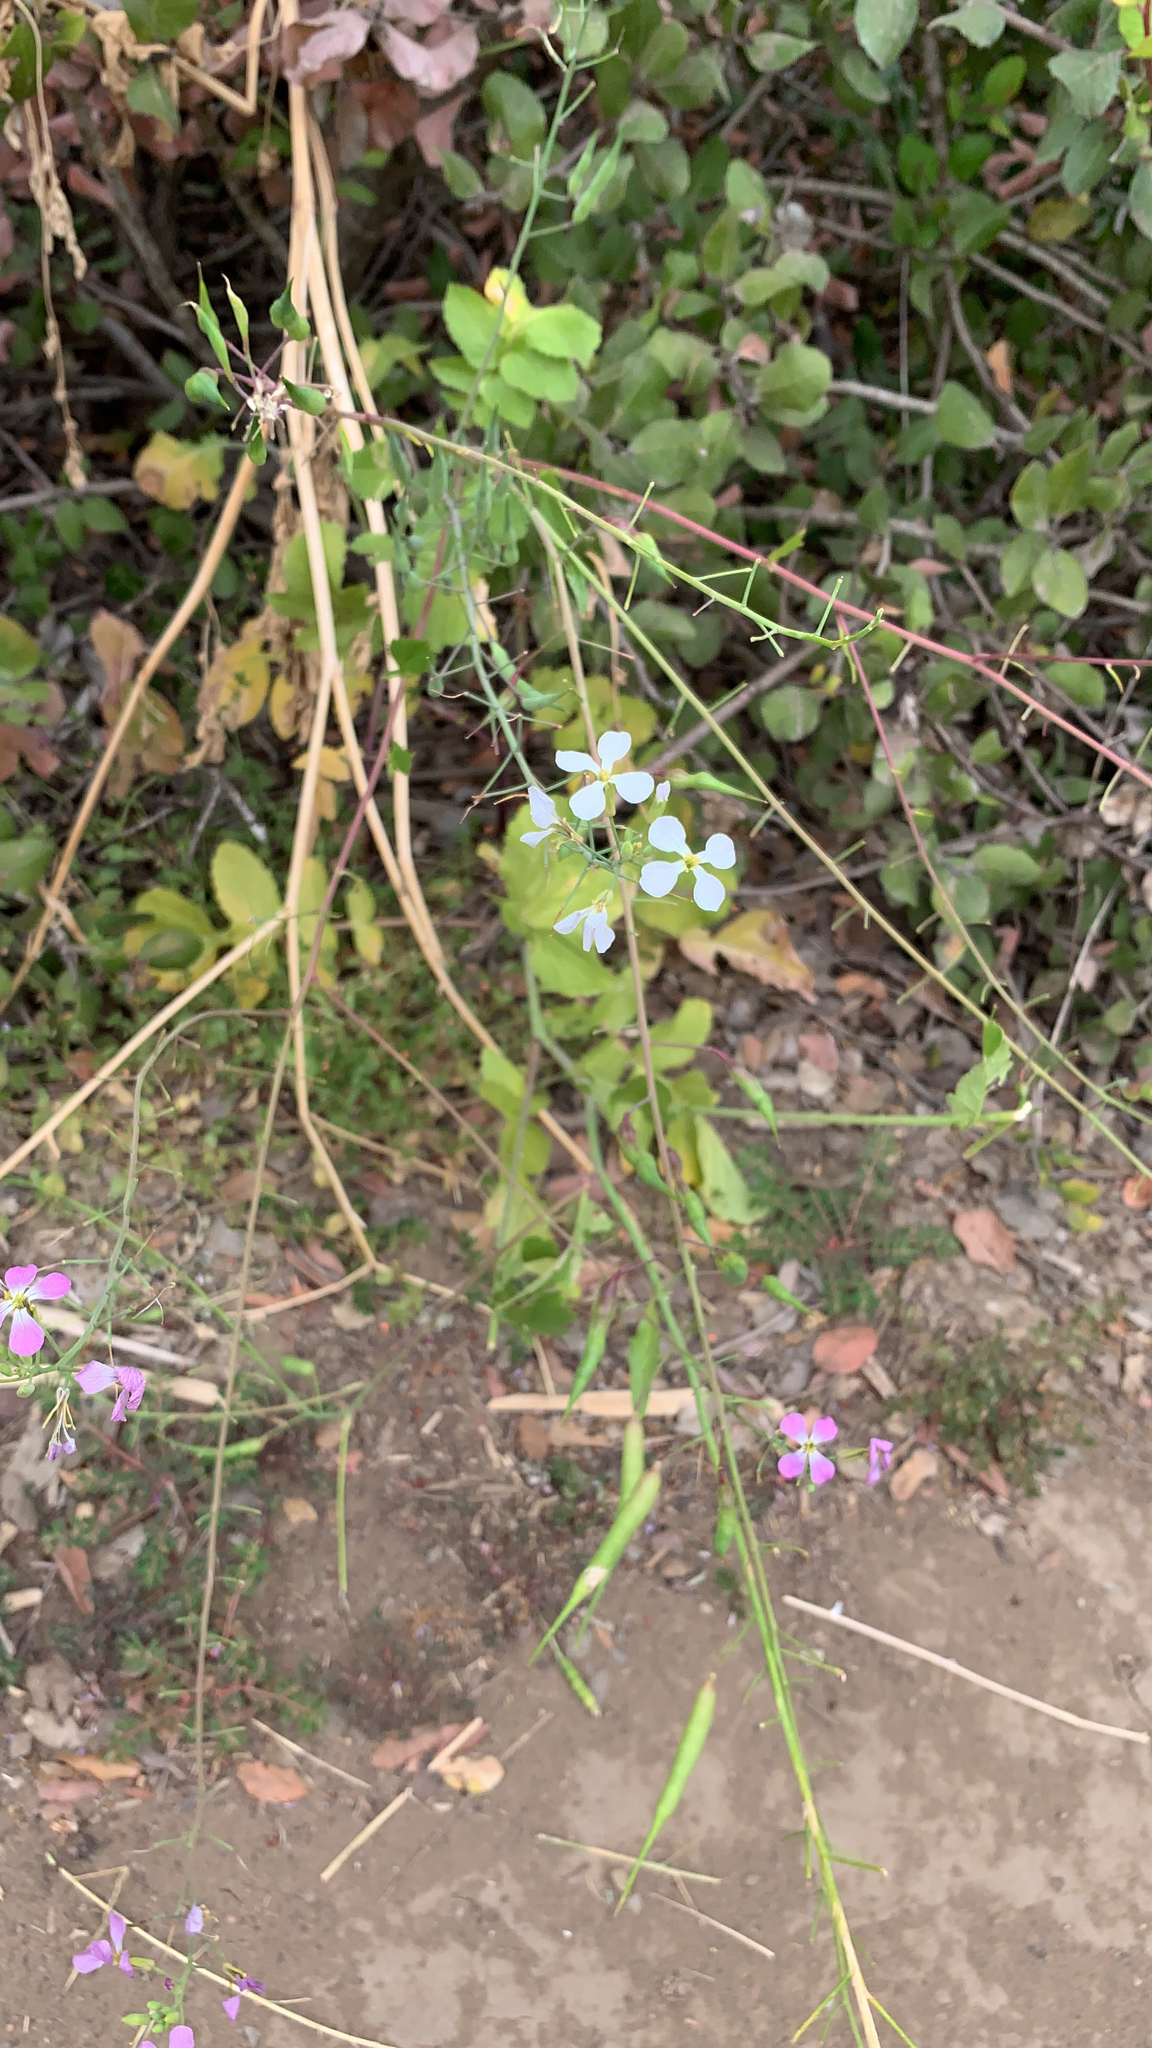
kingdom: Plantae
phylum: Tracheophyta
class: Magnoliopsida
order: Brassicales
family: Brassicaceae
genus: Raphanus
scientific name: Raphanus sativus
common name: Cultivated radish
